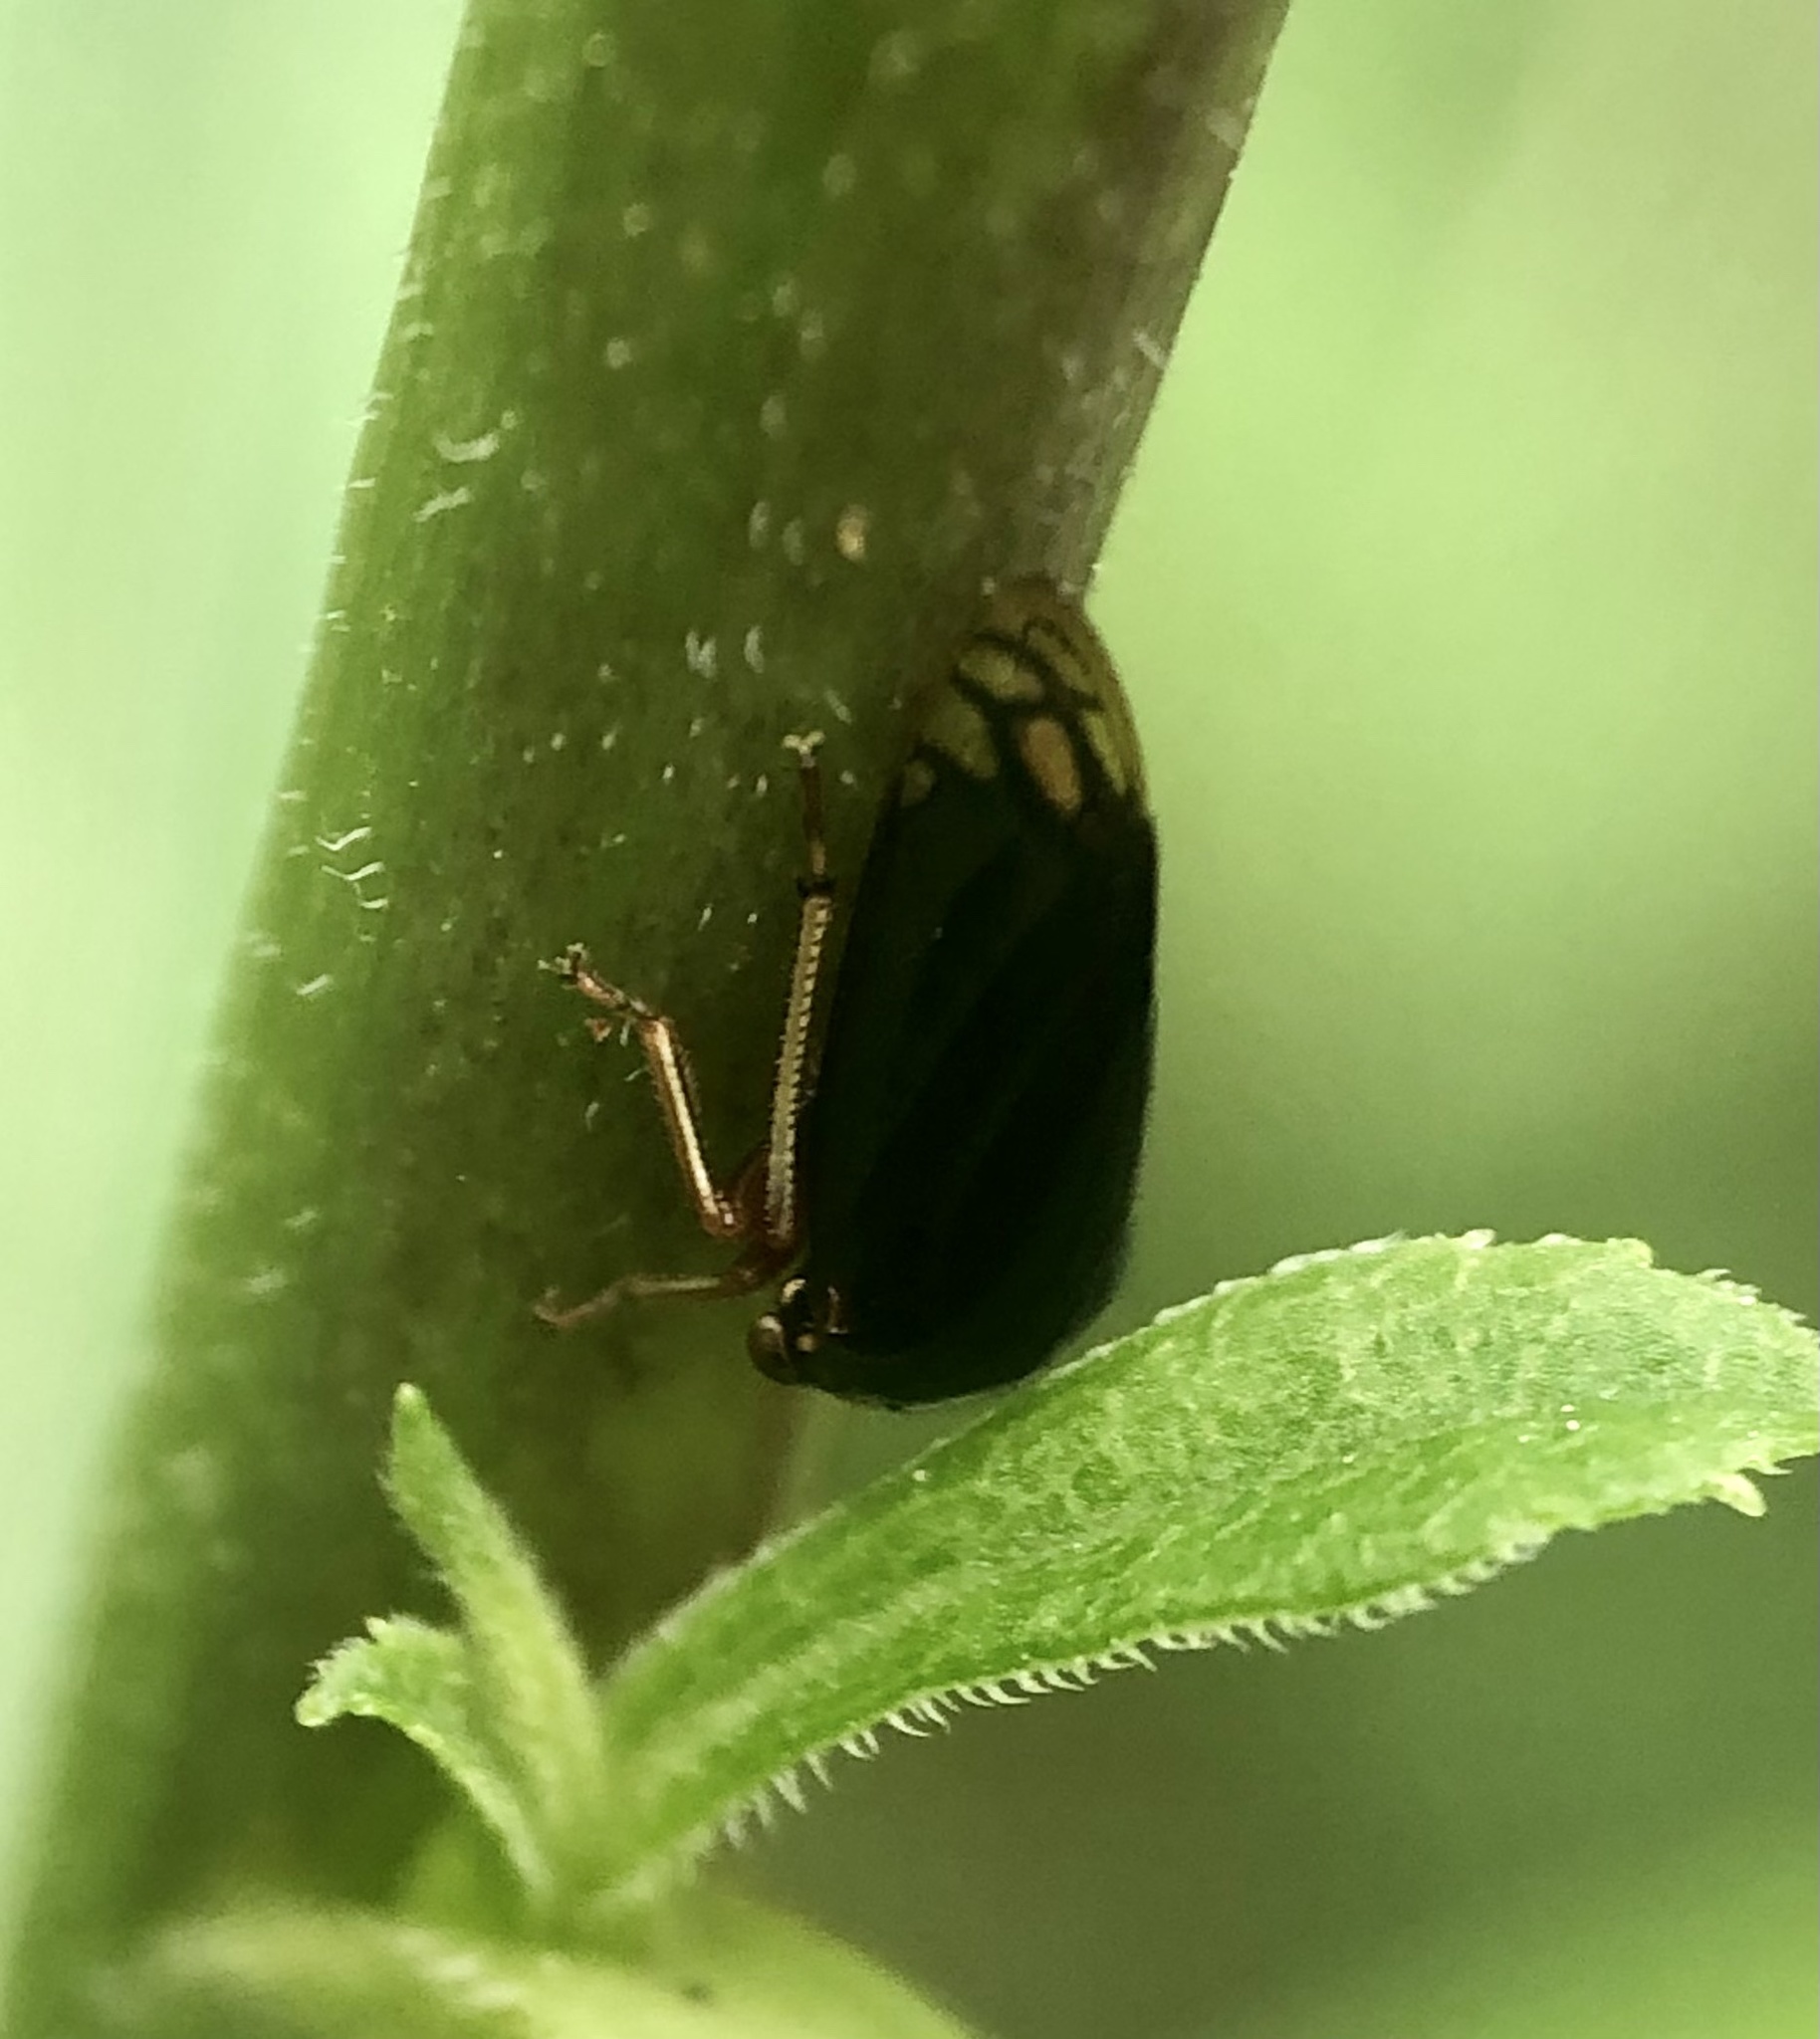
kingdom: Animalia
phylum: Arthropoda
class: Insecta
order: Hemiptera
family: Membracidae
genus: Acutalis
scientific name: Acutalis tartarea
